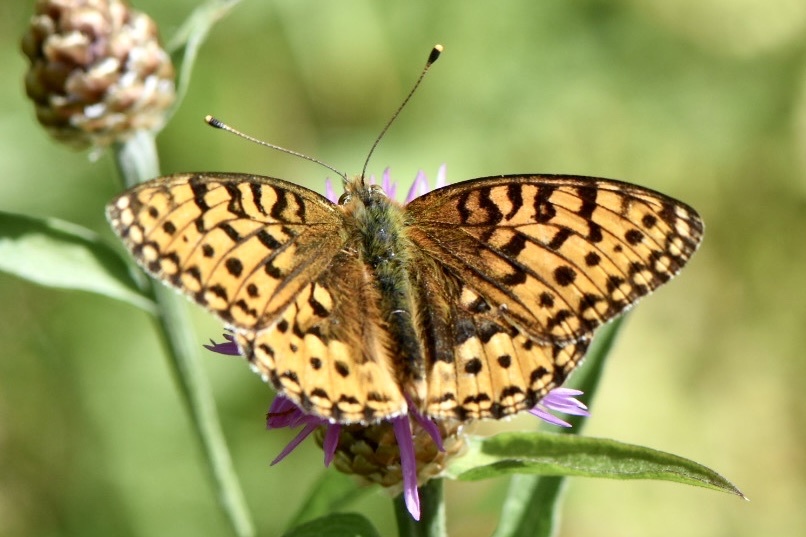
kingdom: Animalia
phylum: Arthropoda
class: Insecta
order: Lepidoptera
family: Nymphalidae
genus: Speyeria
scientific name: Speyeria aglaja
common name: Dark green fritillary
